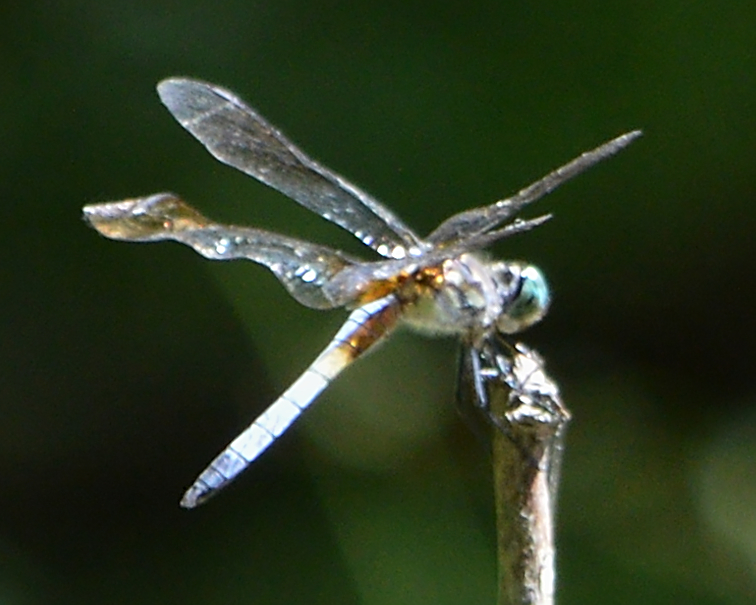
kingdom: Animalia
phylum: Arthropoda
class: Insecta
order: Odonata
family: Libellulidae
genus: Pachydiplax
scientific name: Pachydiplax longipennis
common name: Blue dasher
